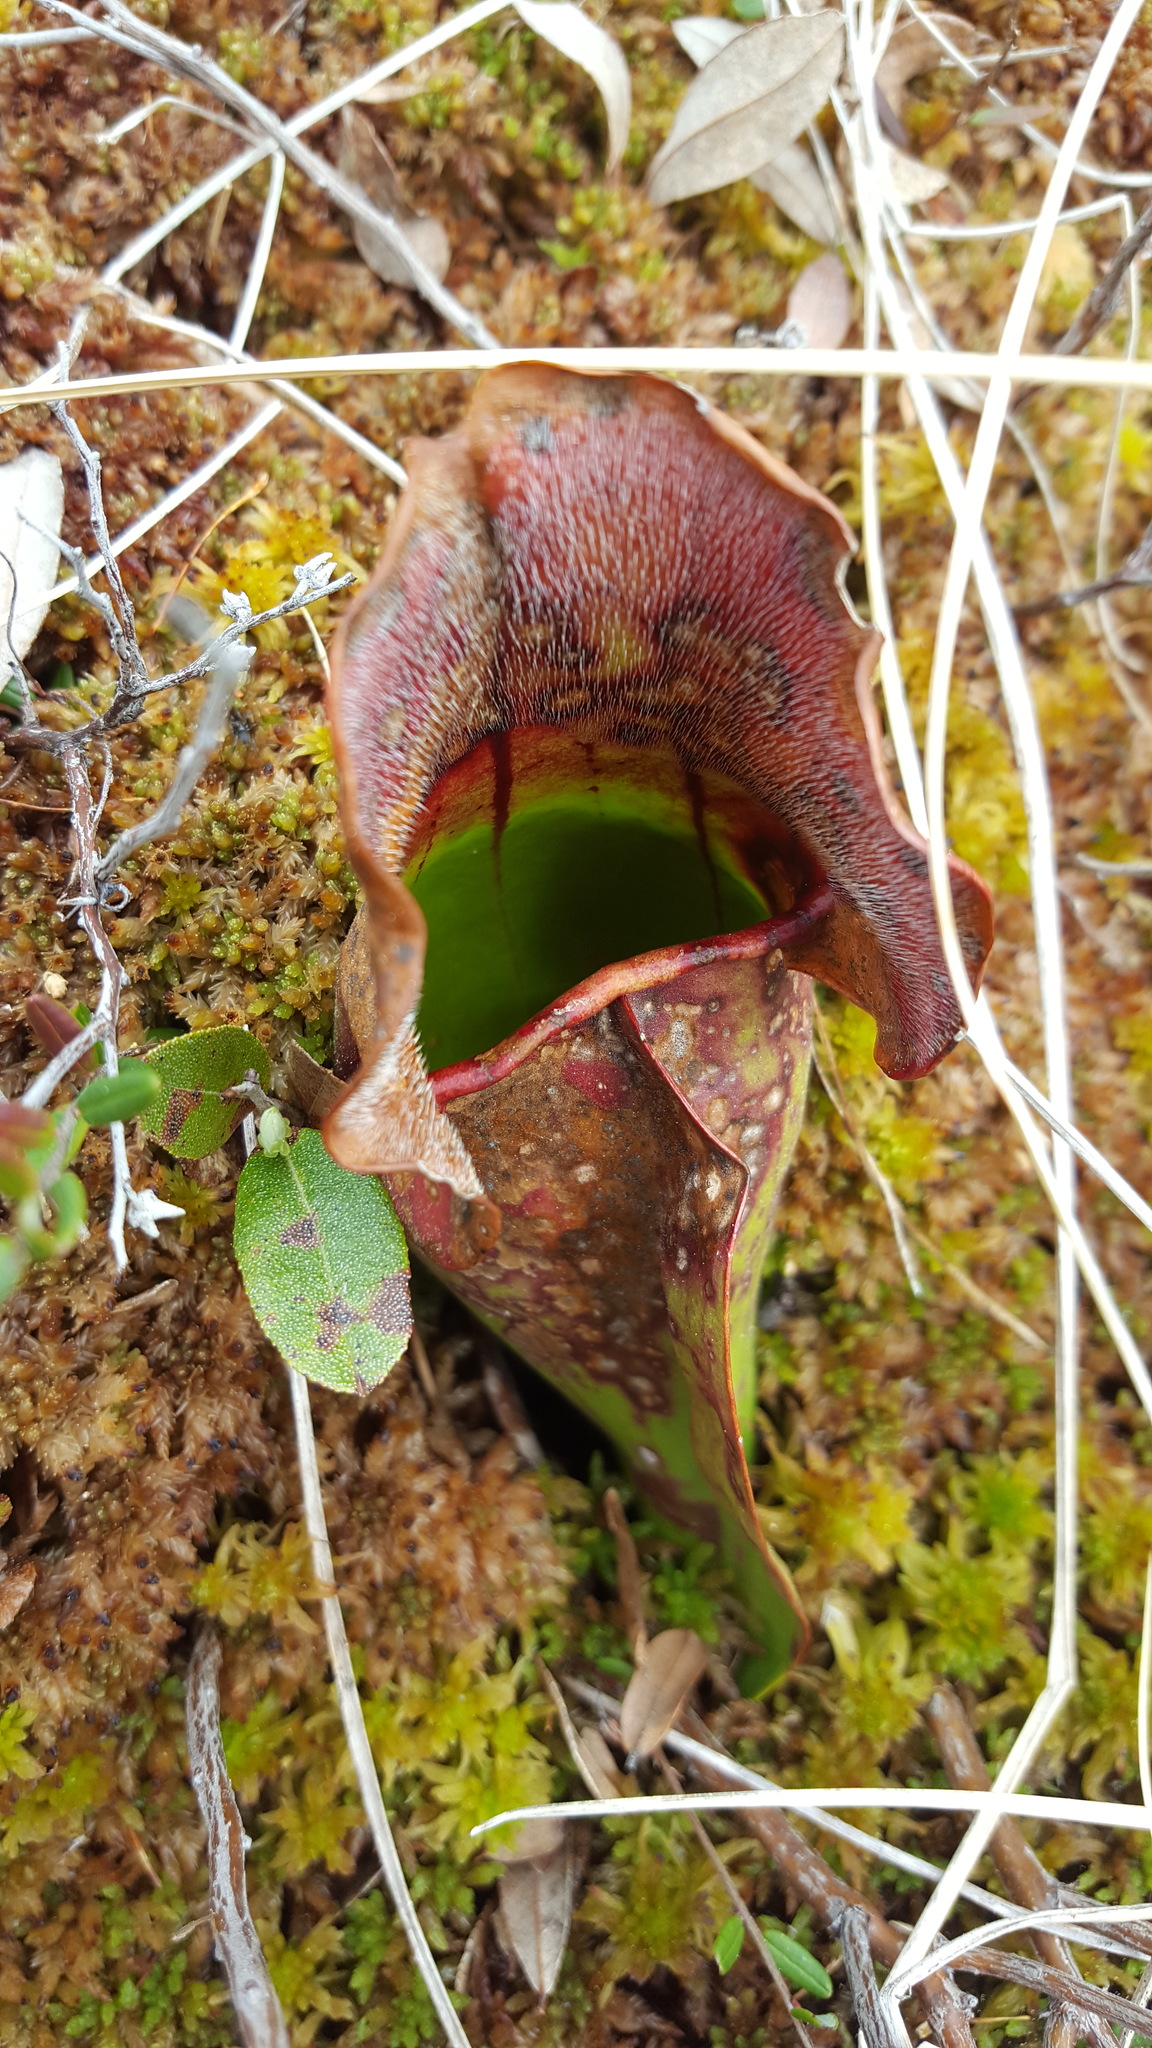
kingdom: Plantae
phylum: Tracheophyta
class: Magnoliopsida
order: Ericales
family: Sarraceniaceae
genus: Sarracenia
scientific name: Sarracenia purpurea
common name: Pitcherplant
